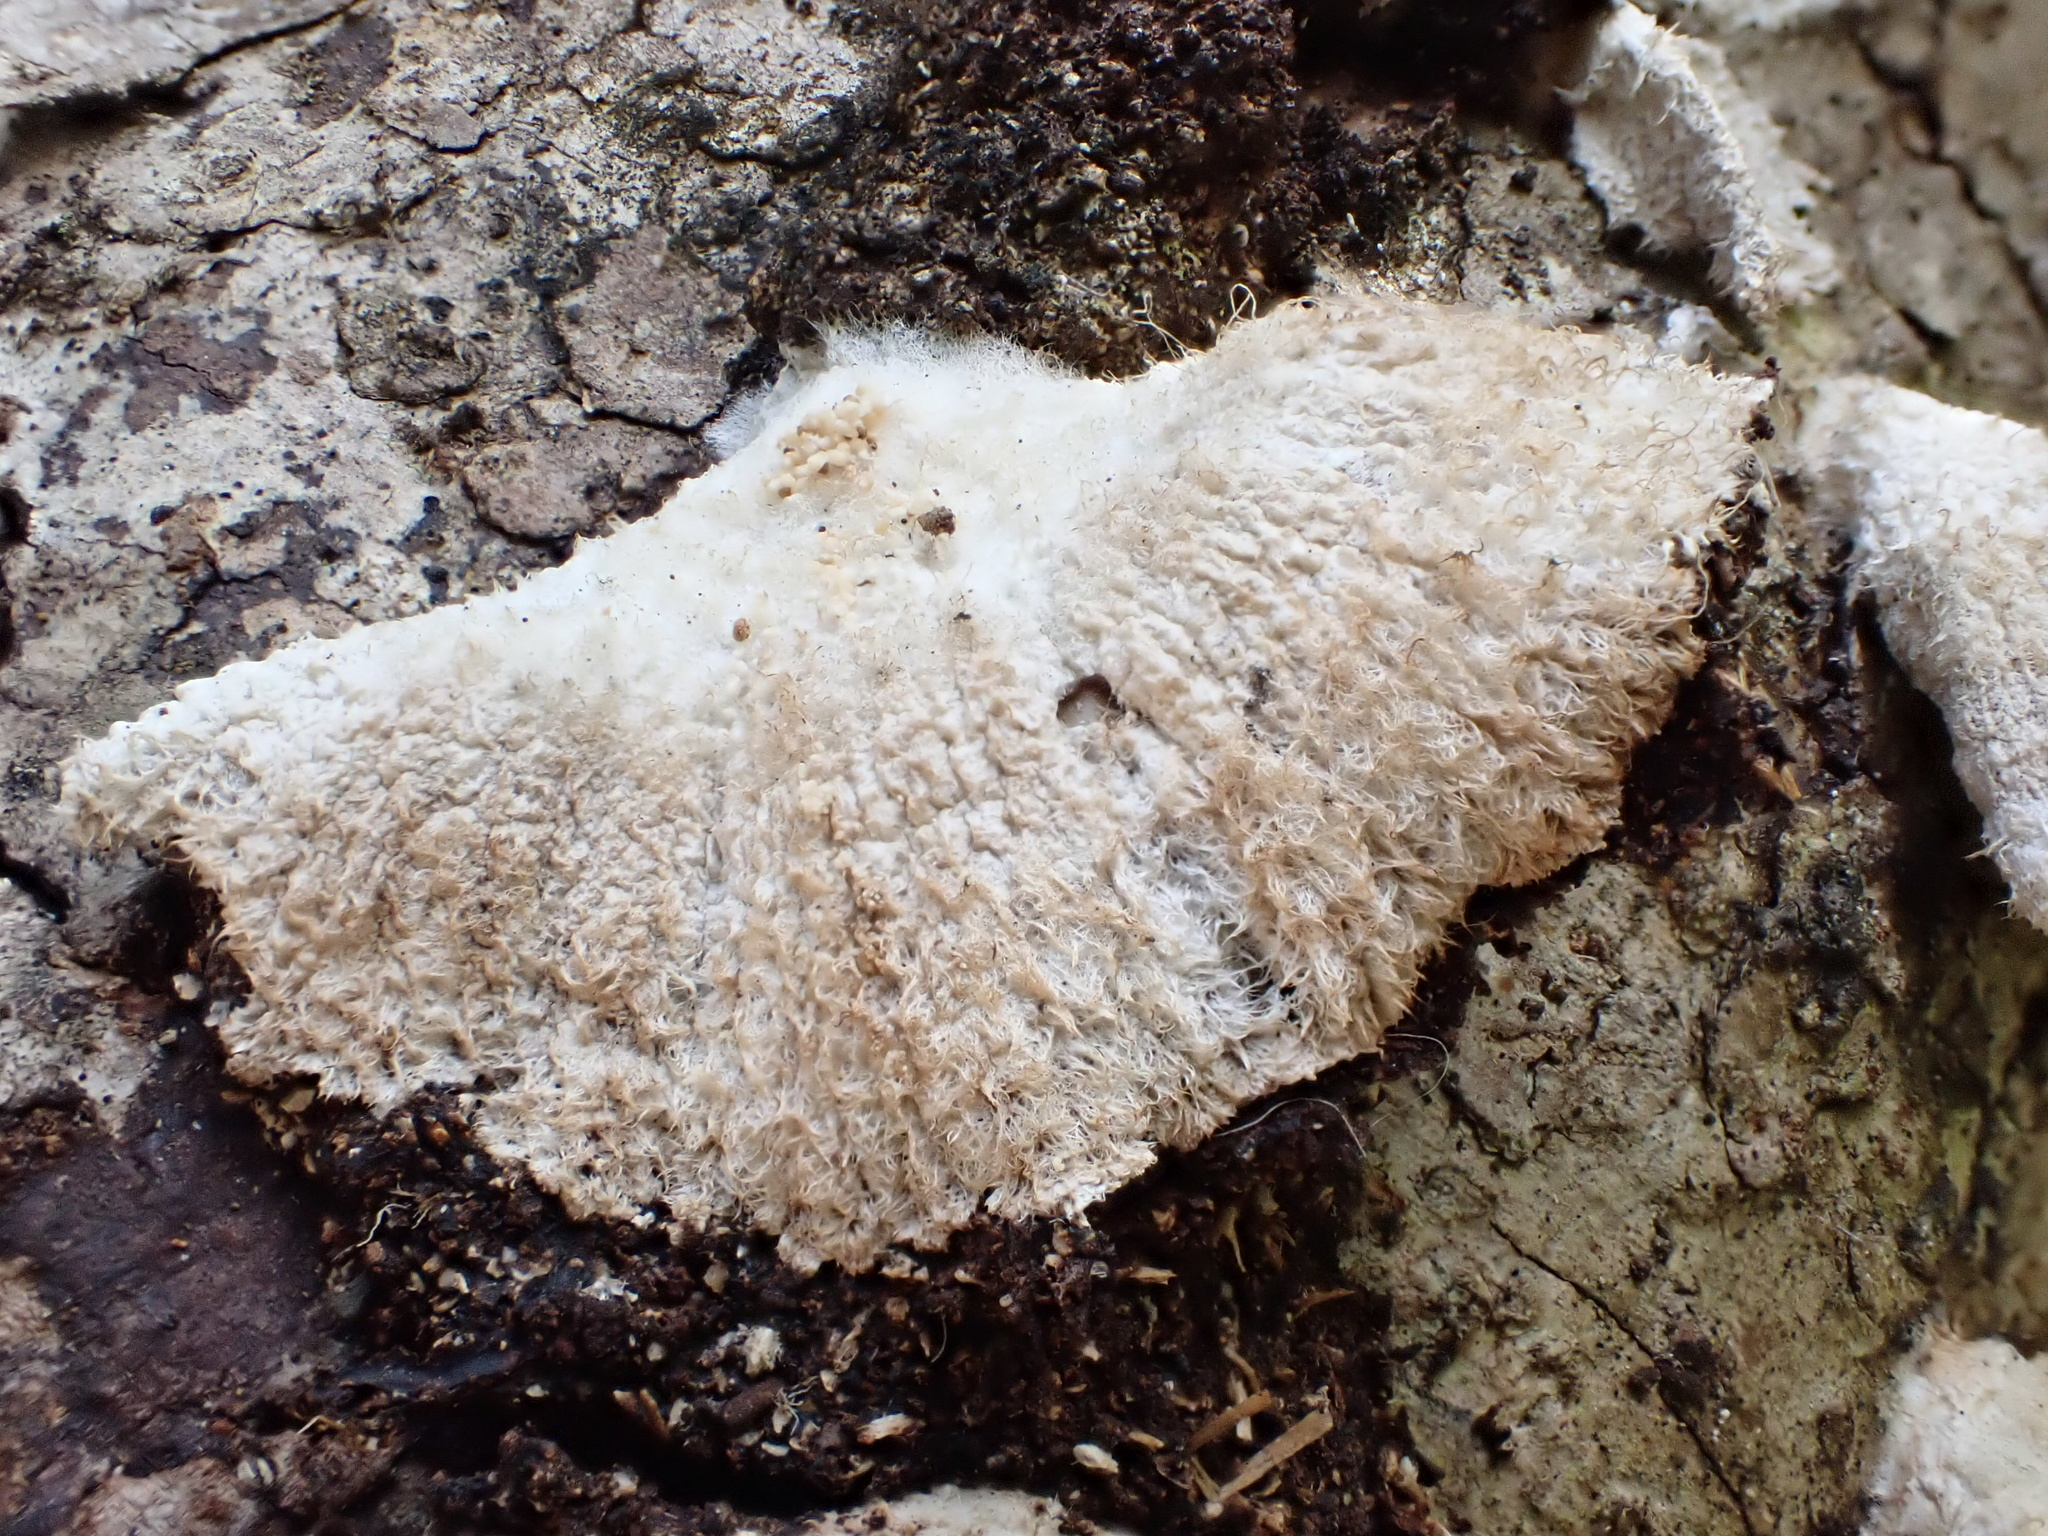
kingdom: Fungi
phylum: Basidiomycota
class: Agaricomycetes
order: Agaricales
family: Schizophyllaceae
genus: Schizophyllum
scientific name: Schizophyllum commune
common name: Common porecrust
